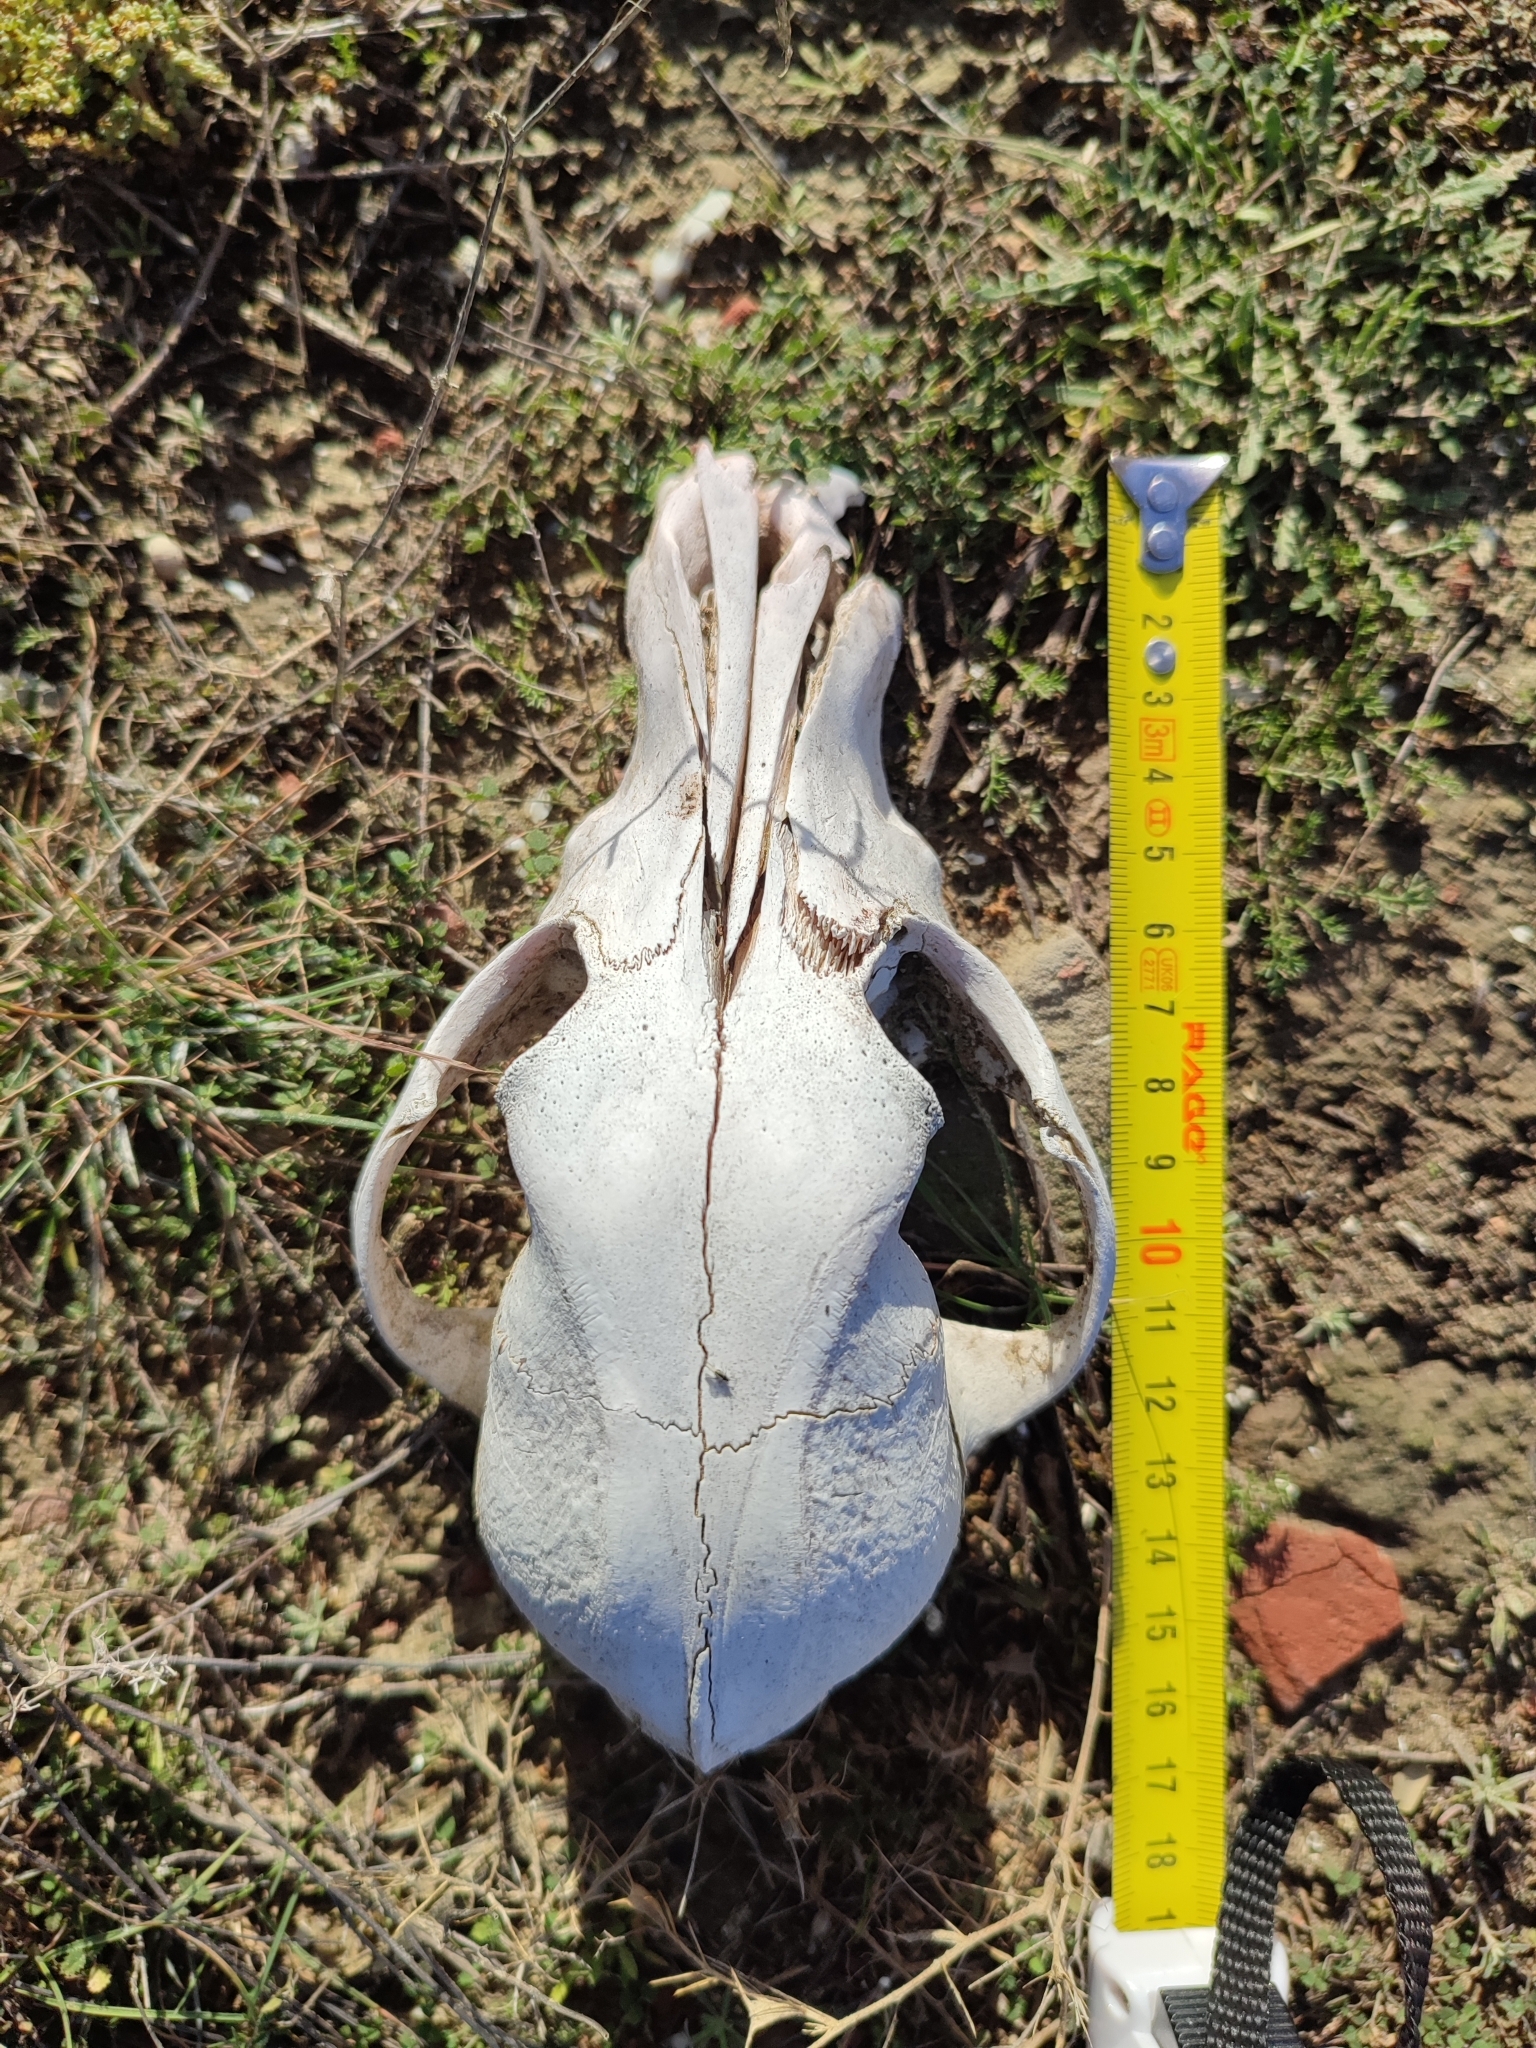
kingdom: Animalia
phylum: Chordata
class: Mammalia
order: Carnivora
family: Canidae
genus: Canis
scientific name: Canis lupus
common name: Gray wolf
